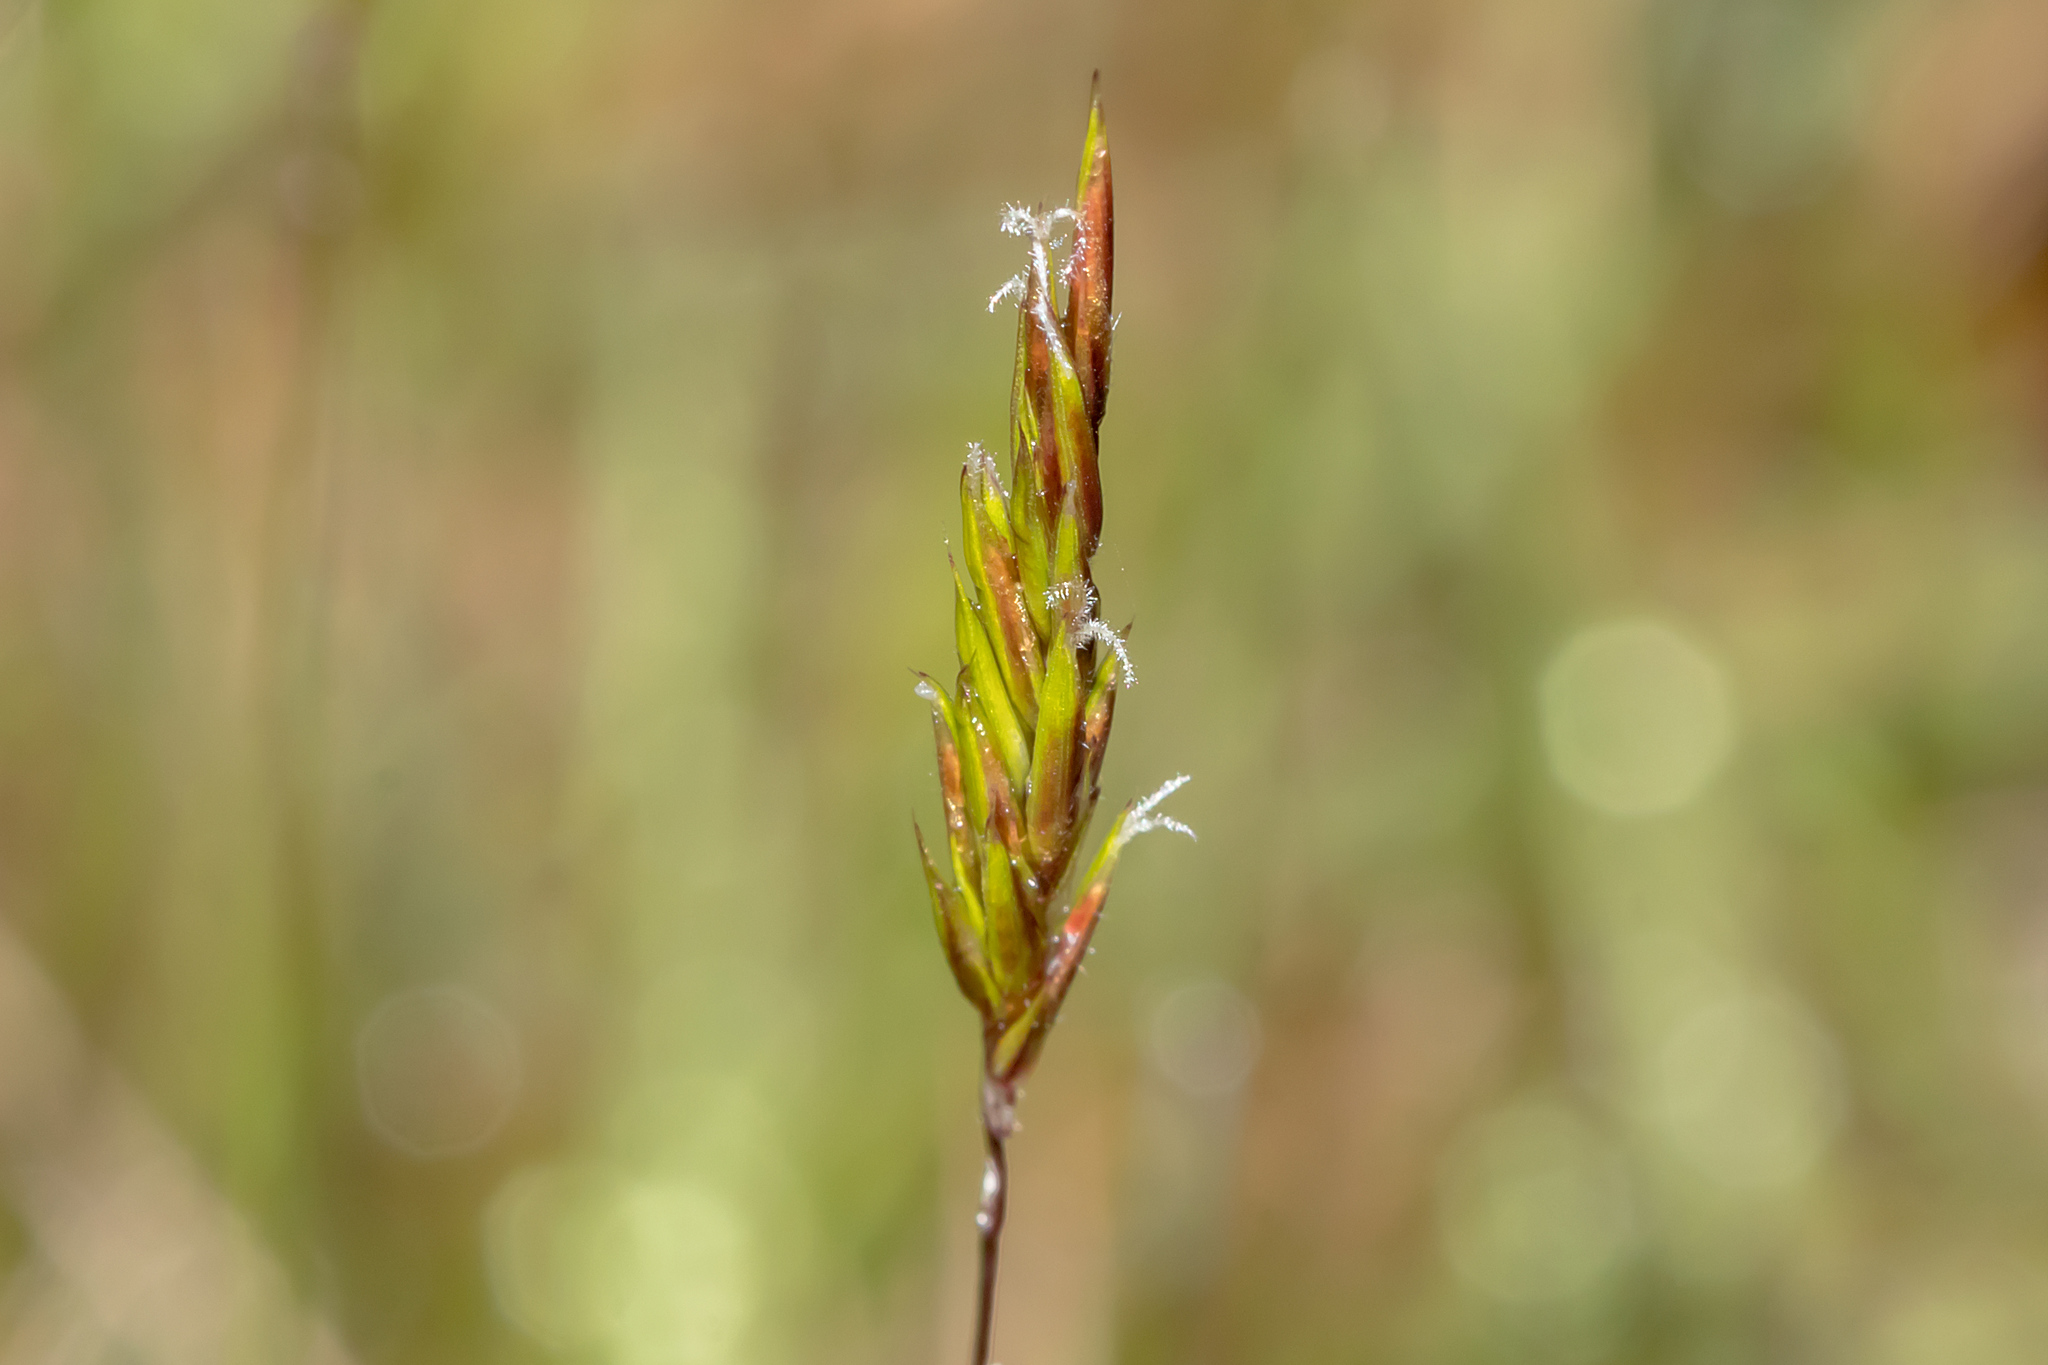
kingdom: Plantae
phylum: Tracheophyta
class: Liliopsida
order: Poales
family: Poaceae
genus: Anthoxanthum
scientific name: Anthoxanthum odoratum
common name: Sweet vernalgrass
